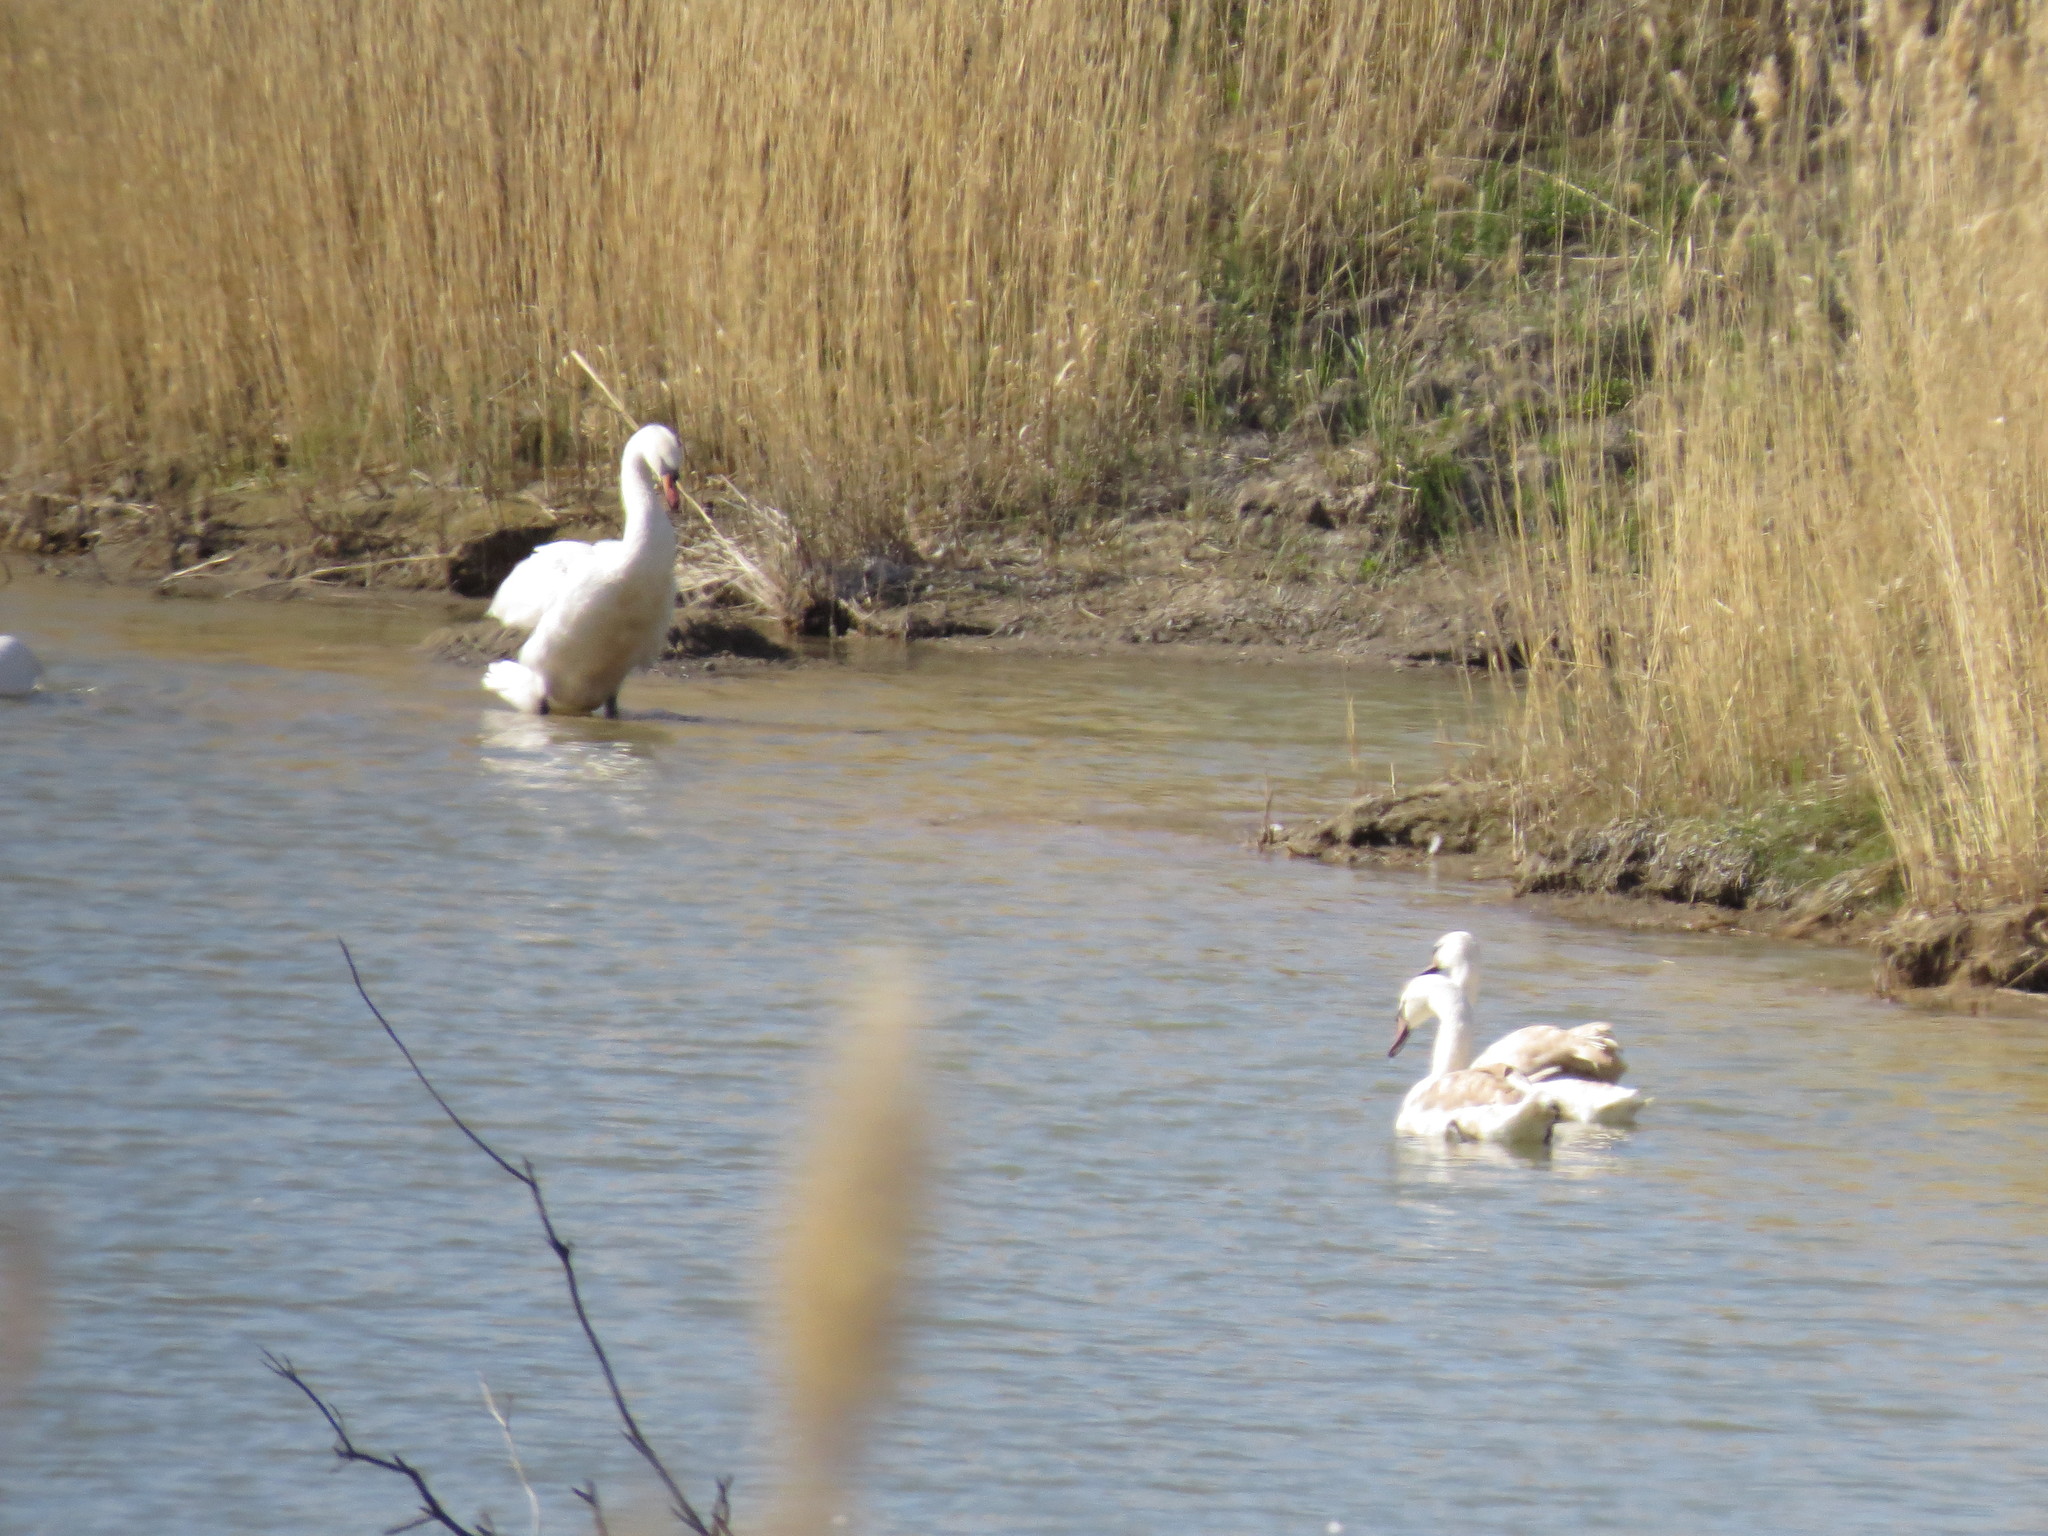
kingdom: Animalia
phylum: Chordata
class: Aves
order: Anseriformes
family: Anatidae
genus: Cygnus
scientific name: Cygnus olor
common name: Mute swan
